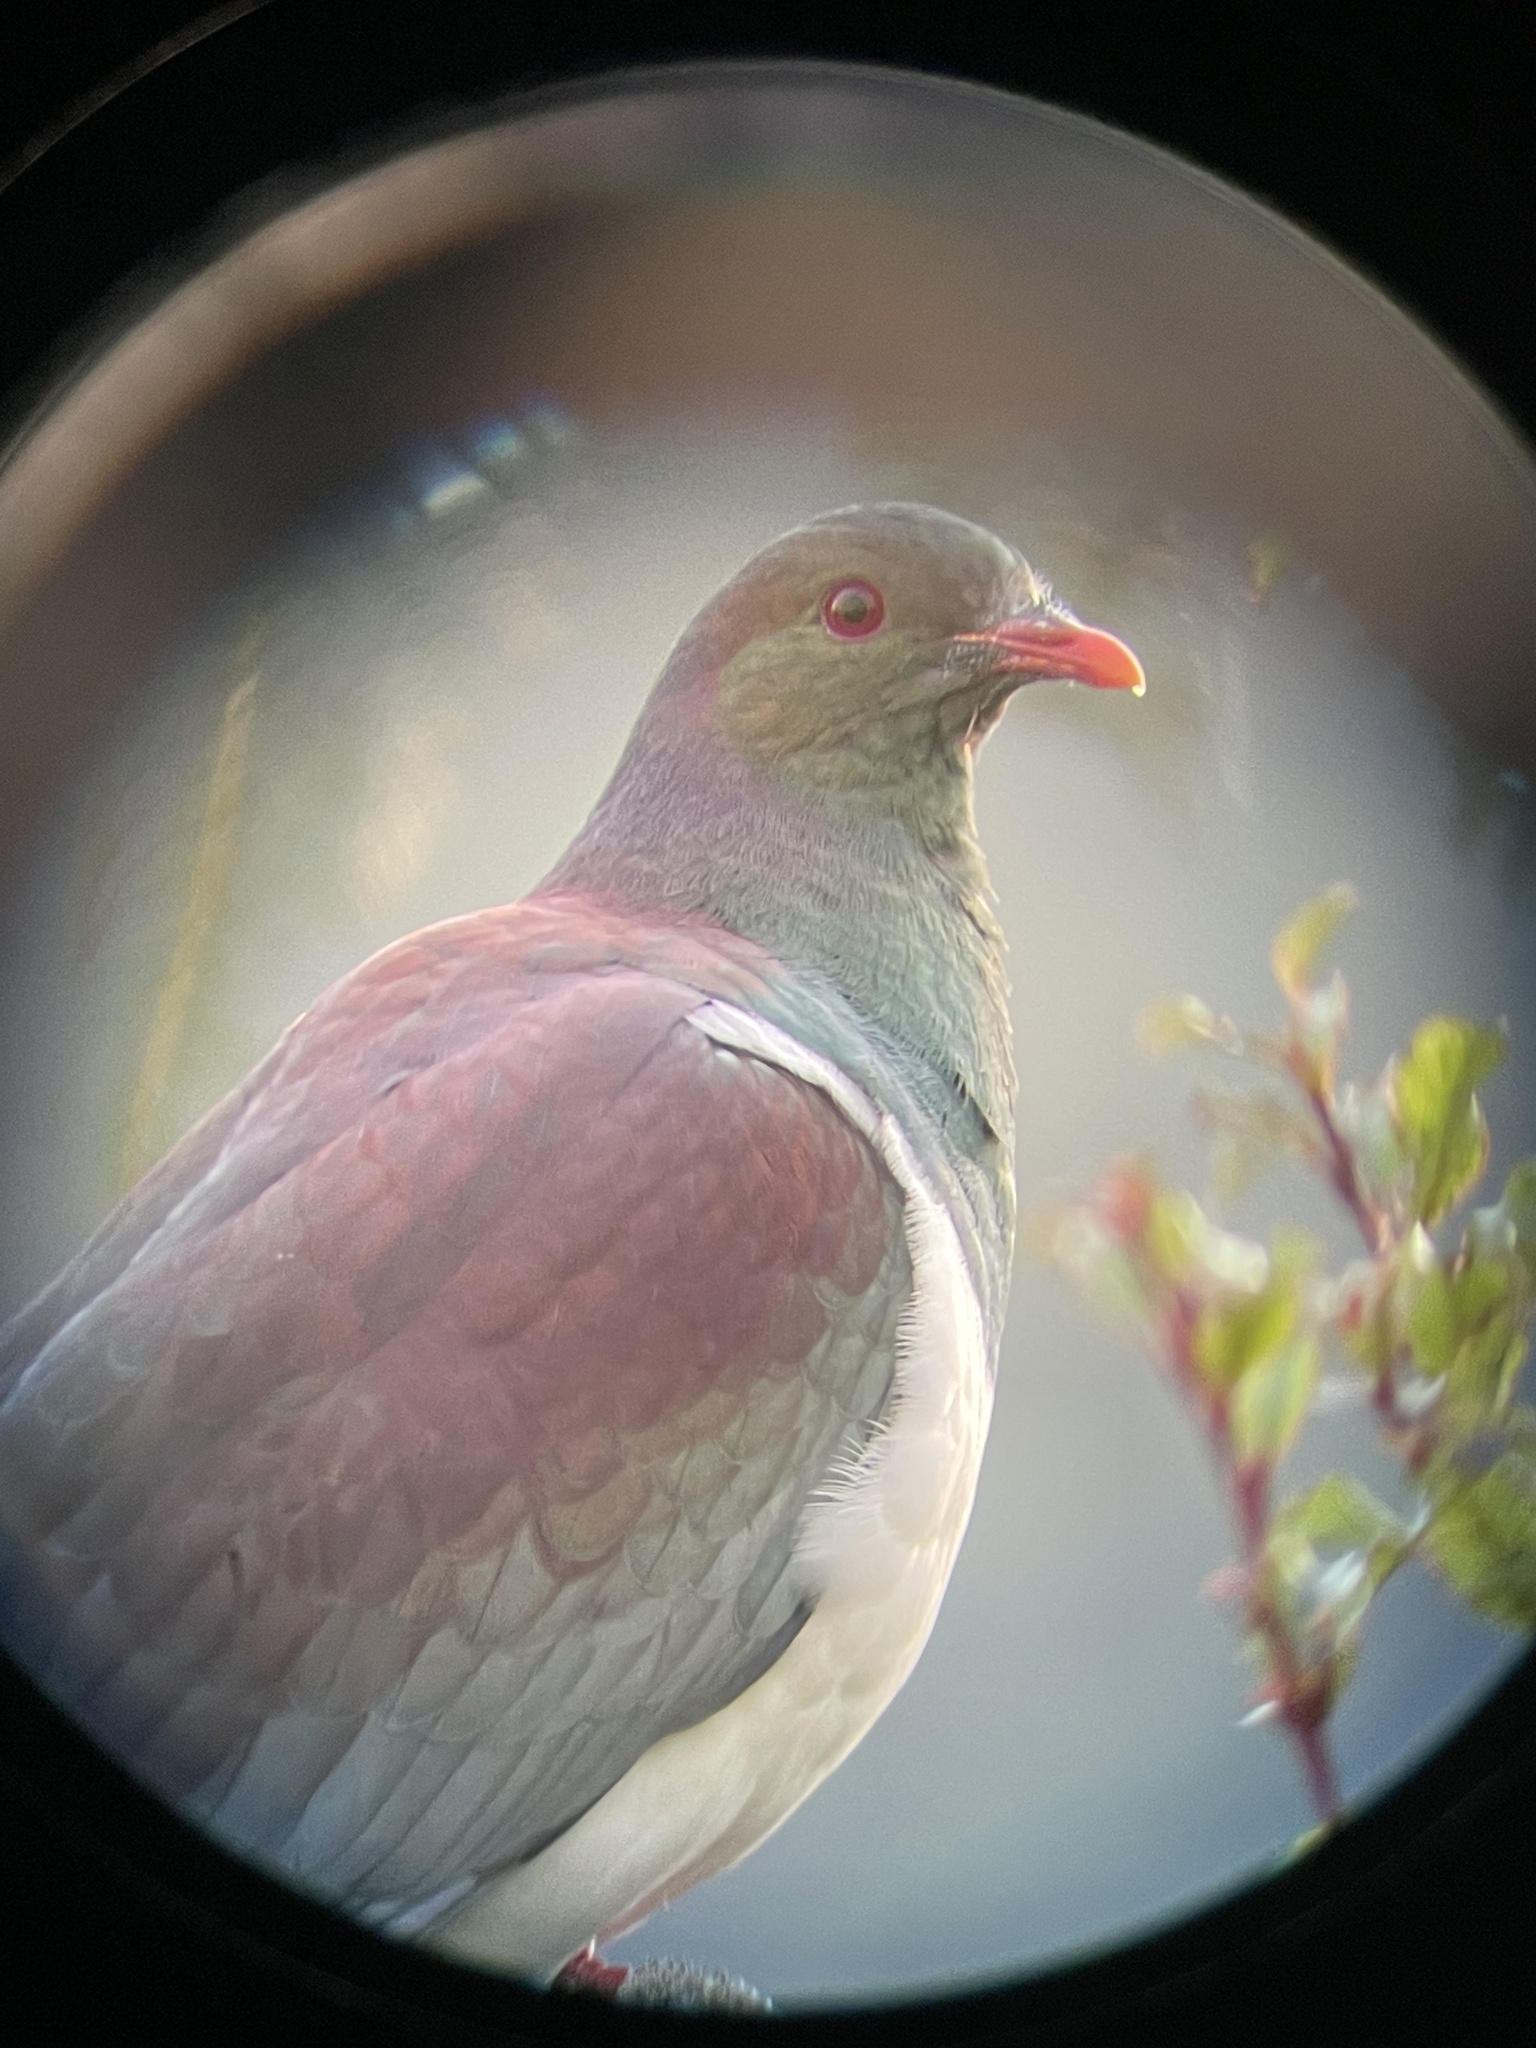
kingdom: Animalia
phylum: Chordata
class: Aves
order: Columbiformes
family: Columbidae
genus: Hemiphaga
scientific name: Hemiphaga novaeseelandiae
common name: New zealand pigeon
